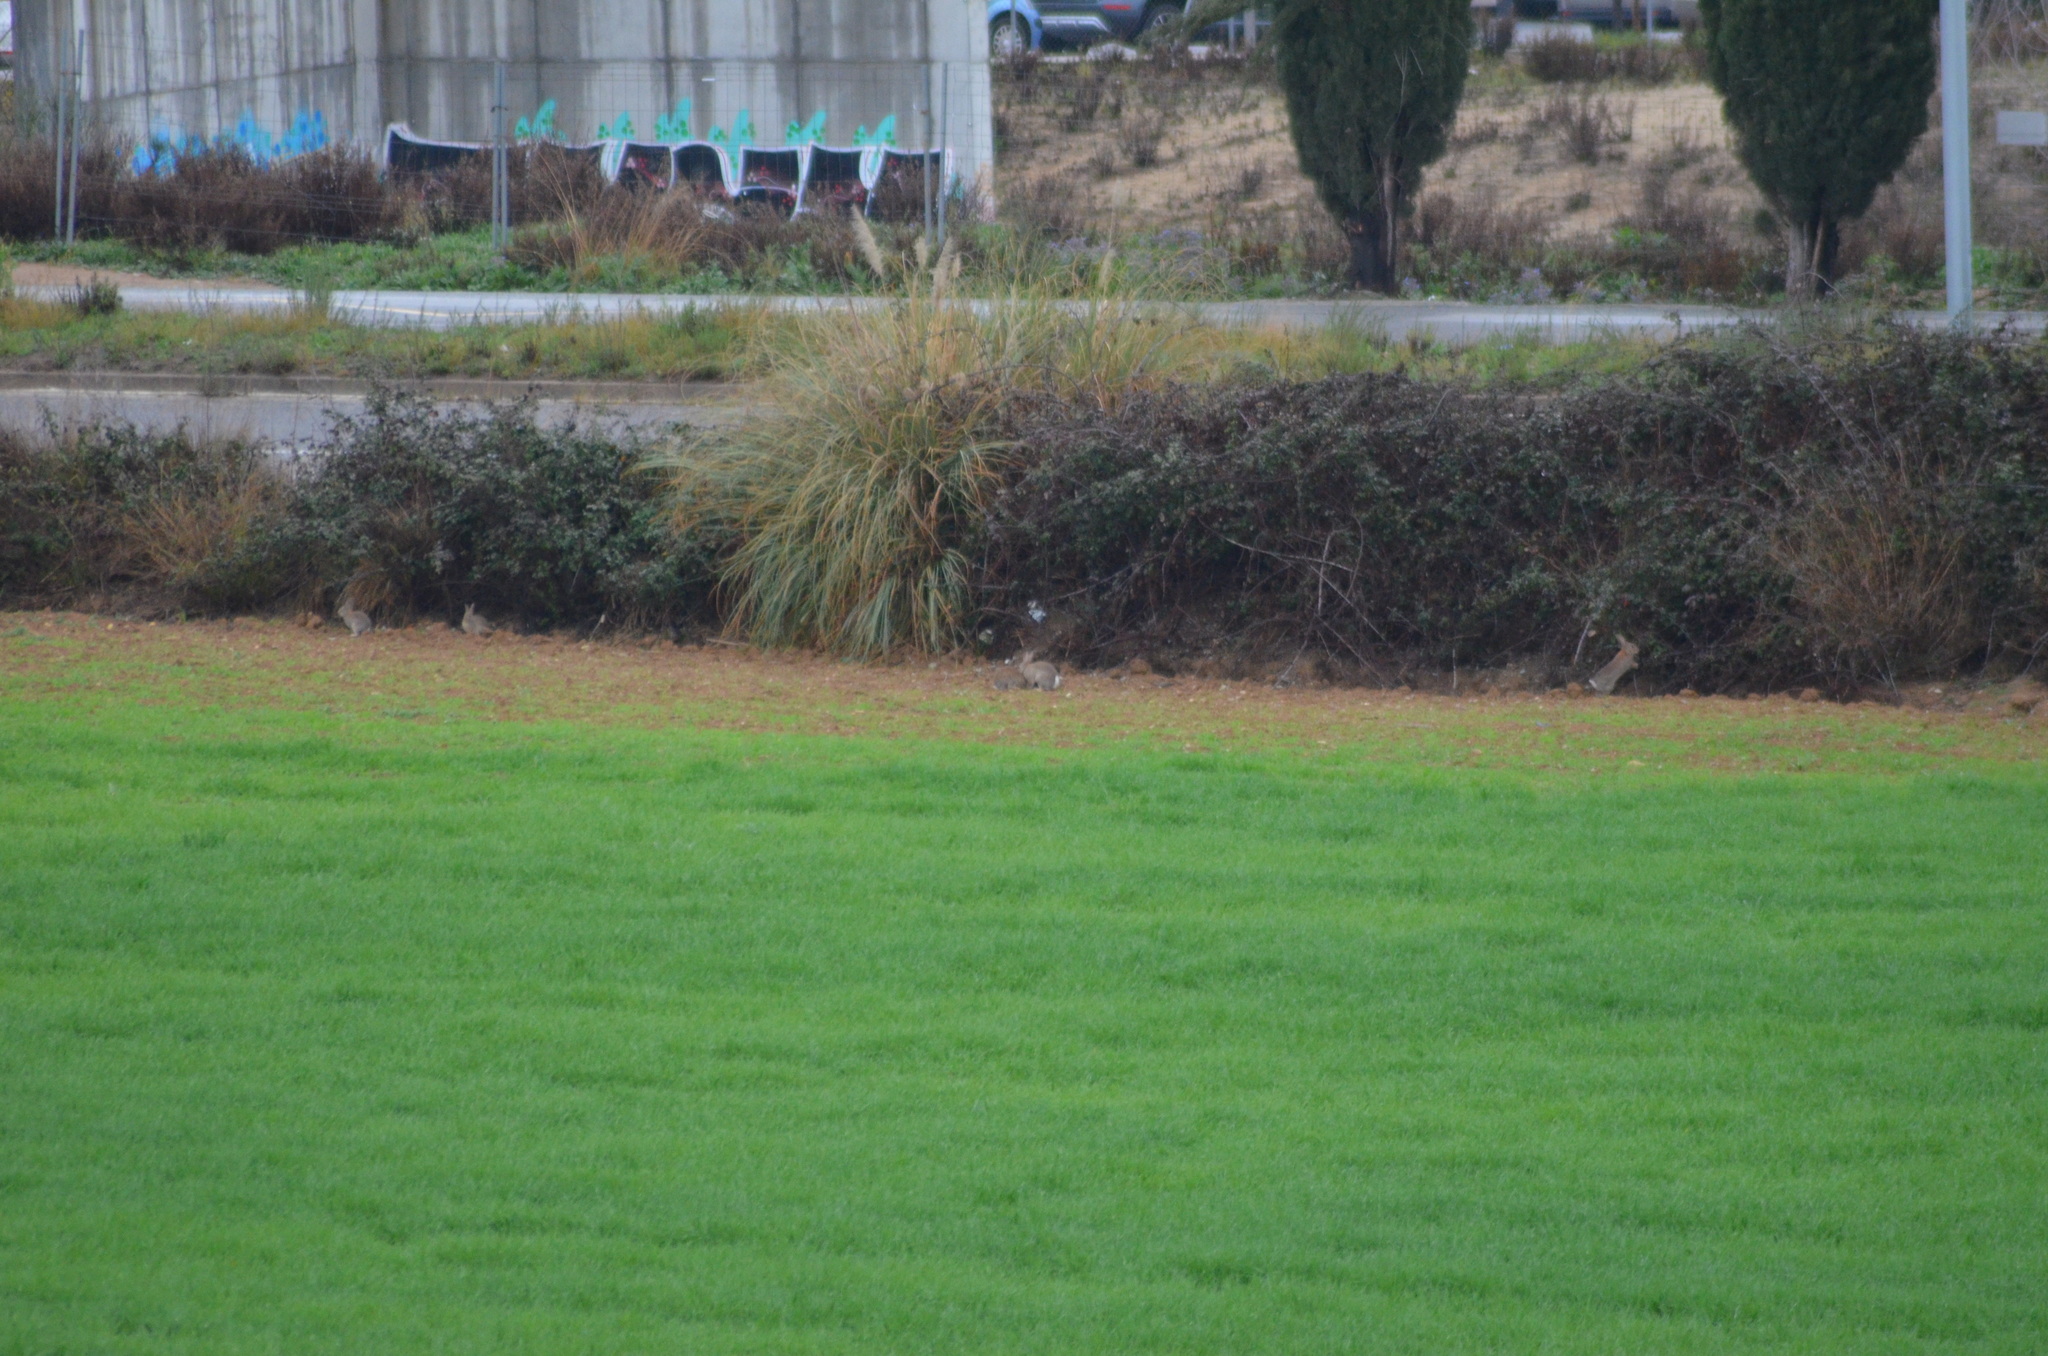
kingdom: Animalia
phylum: Chordata
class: Mammalia
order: Lagomorpha
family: Leporidae
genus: Oryctolagus
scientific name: Oryctolagus cuniculus
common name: European rabbit
